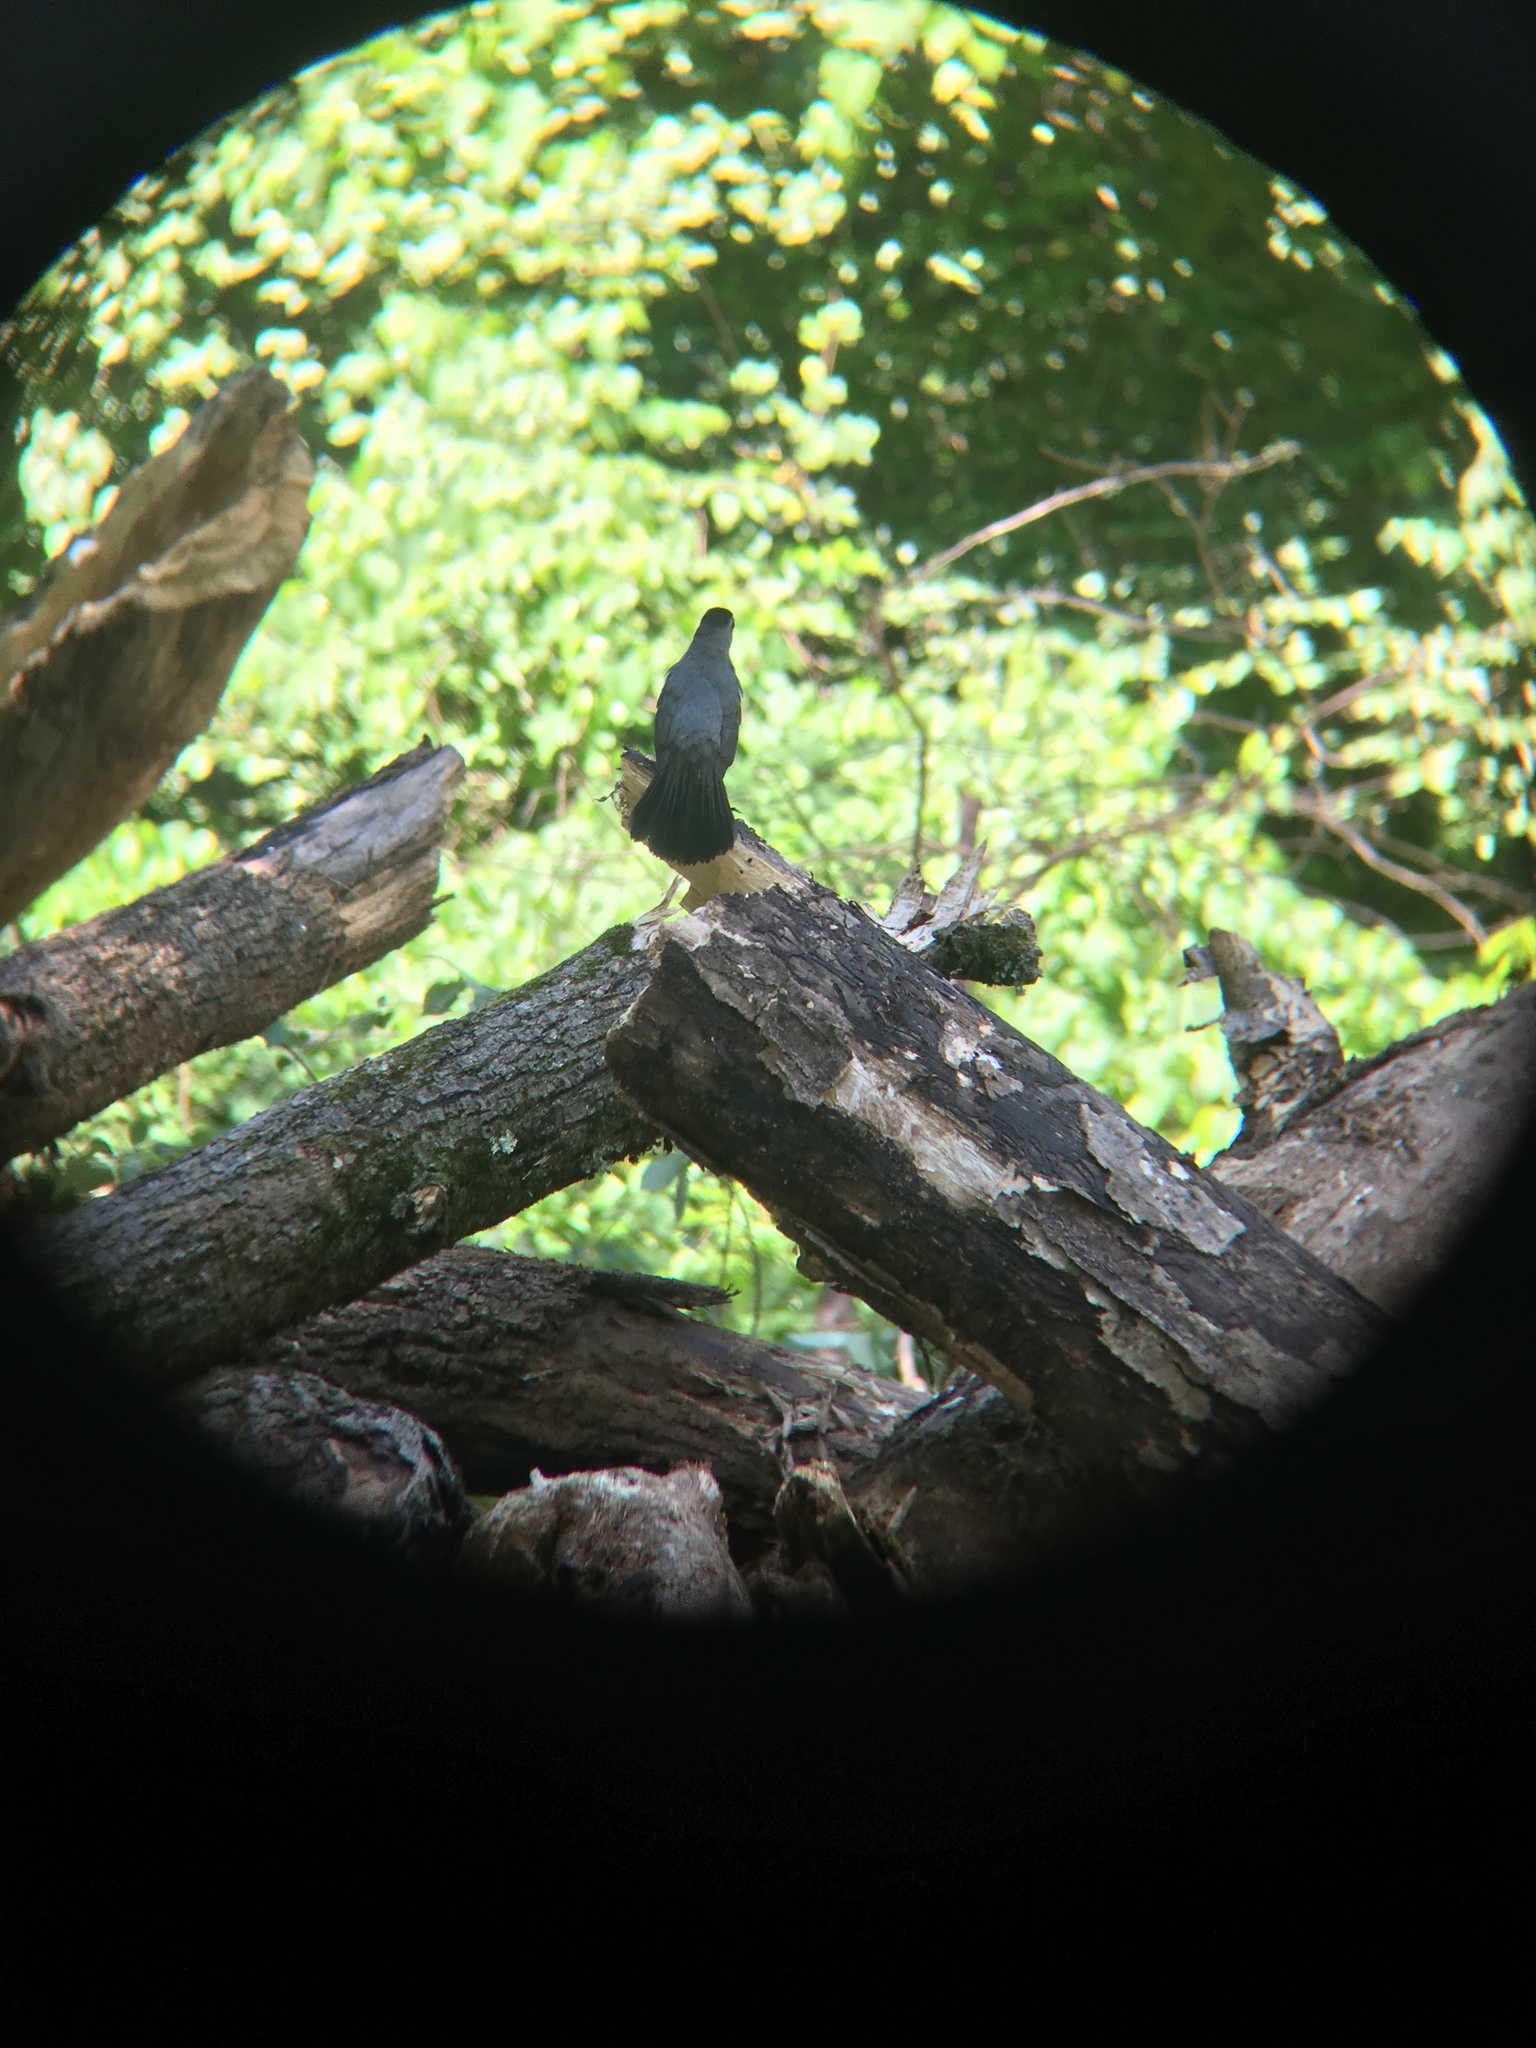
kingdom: Animalia
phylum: Chordata
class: Aves
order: Passeriformes
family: Mimidae
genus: Dumetella
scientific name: Dumetella carolinensis
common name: Gray catbird
